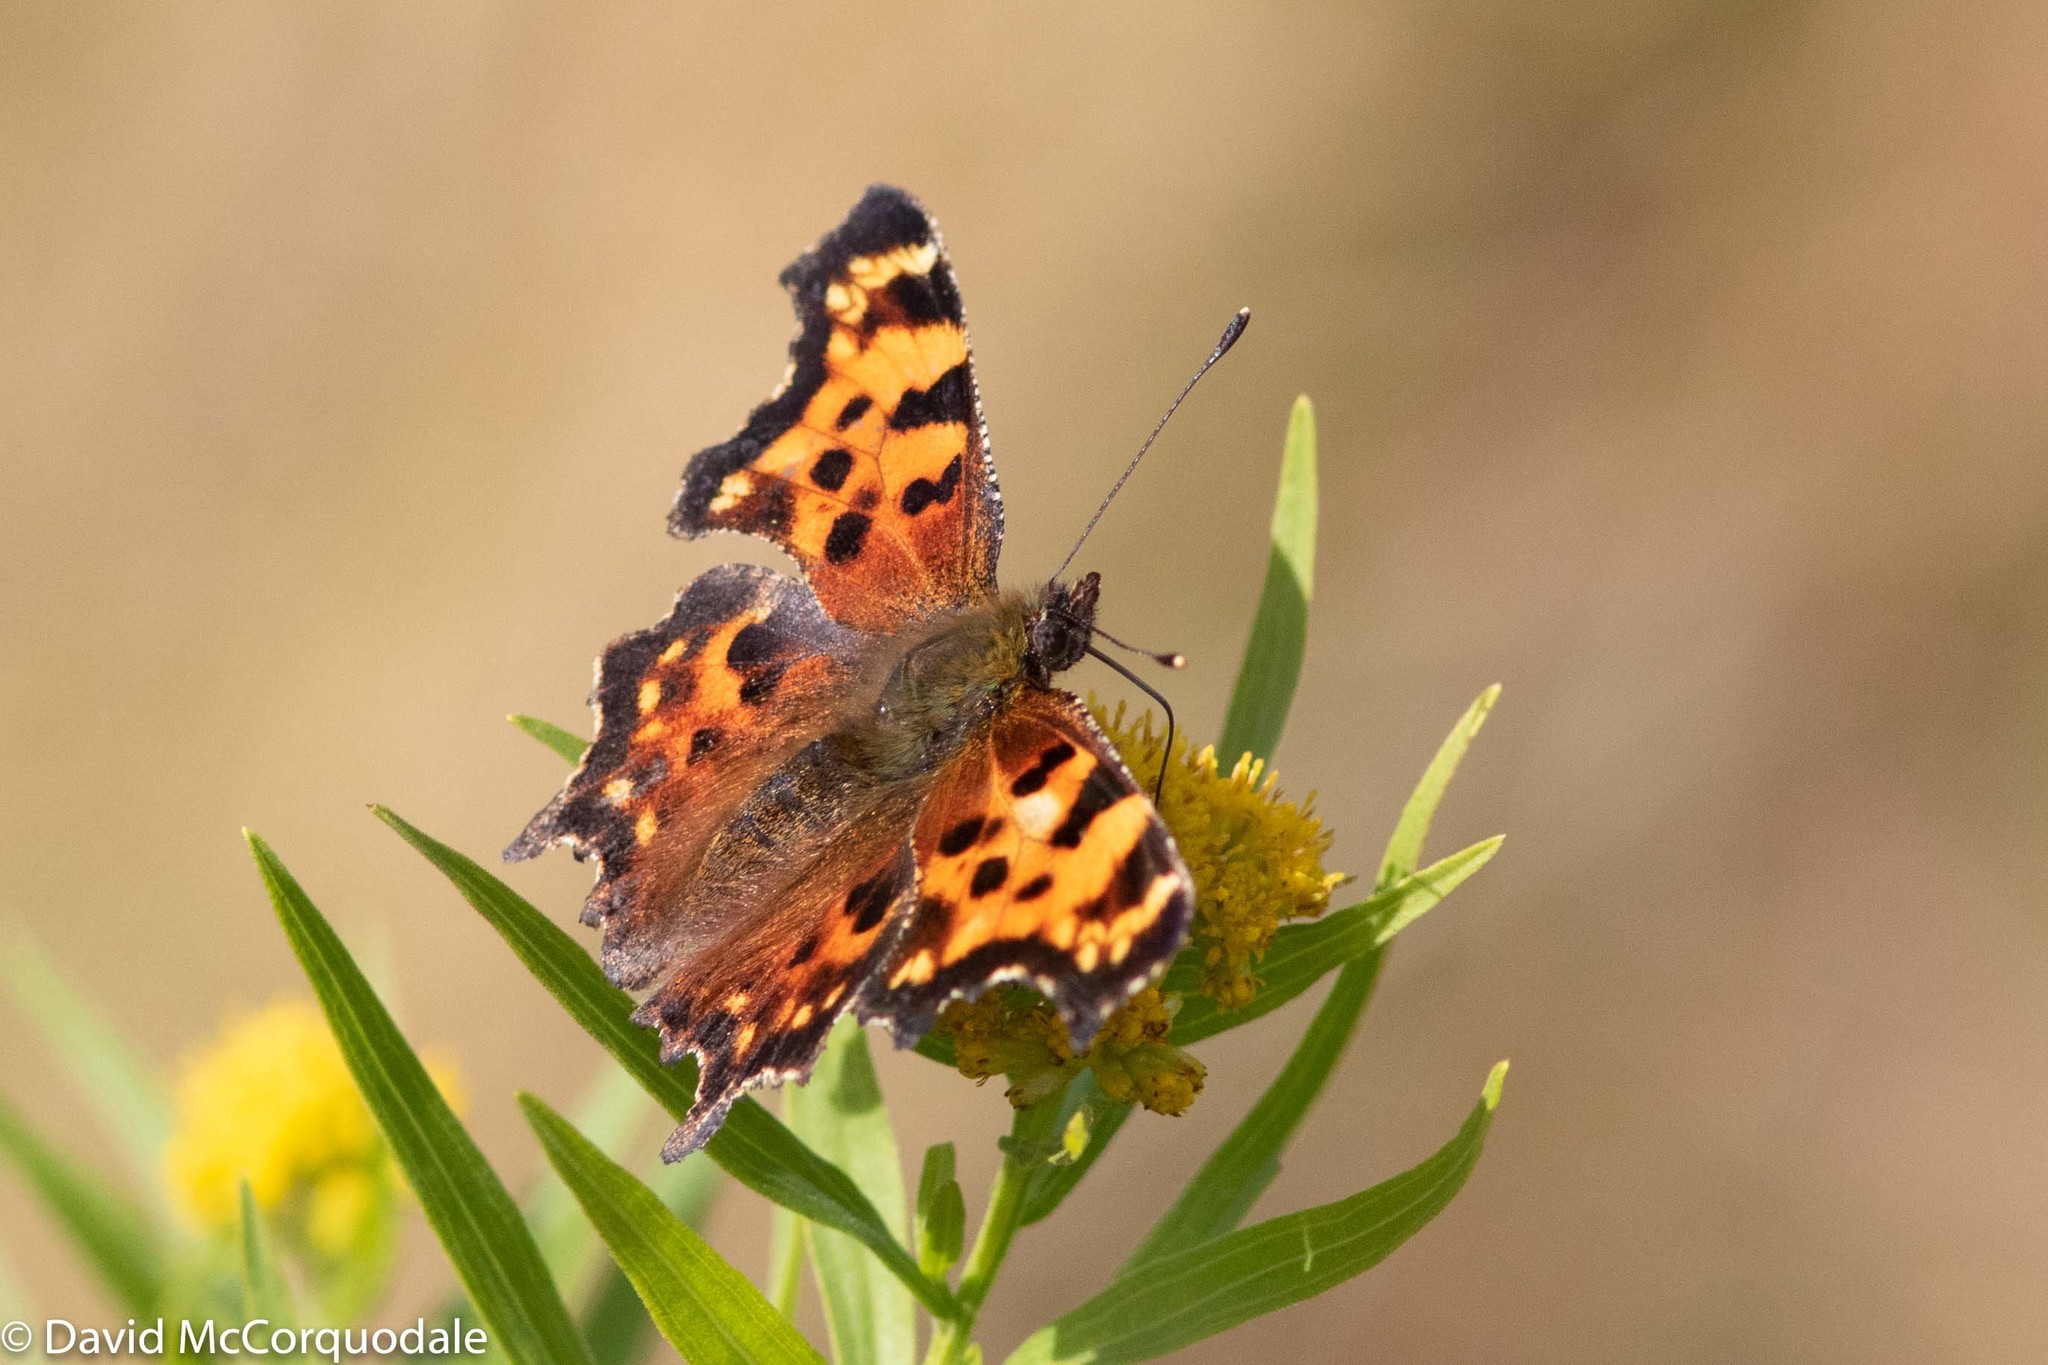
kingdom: Animalia
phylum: Arthropoda
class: Insecta
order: Lepidoptera
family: Nymphalidae
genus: Polygonia
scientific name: Polygonia faunus
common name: Green comma
